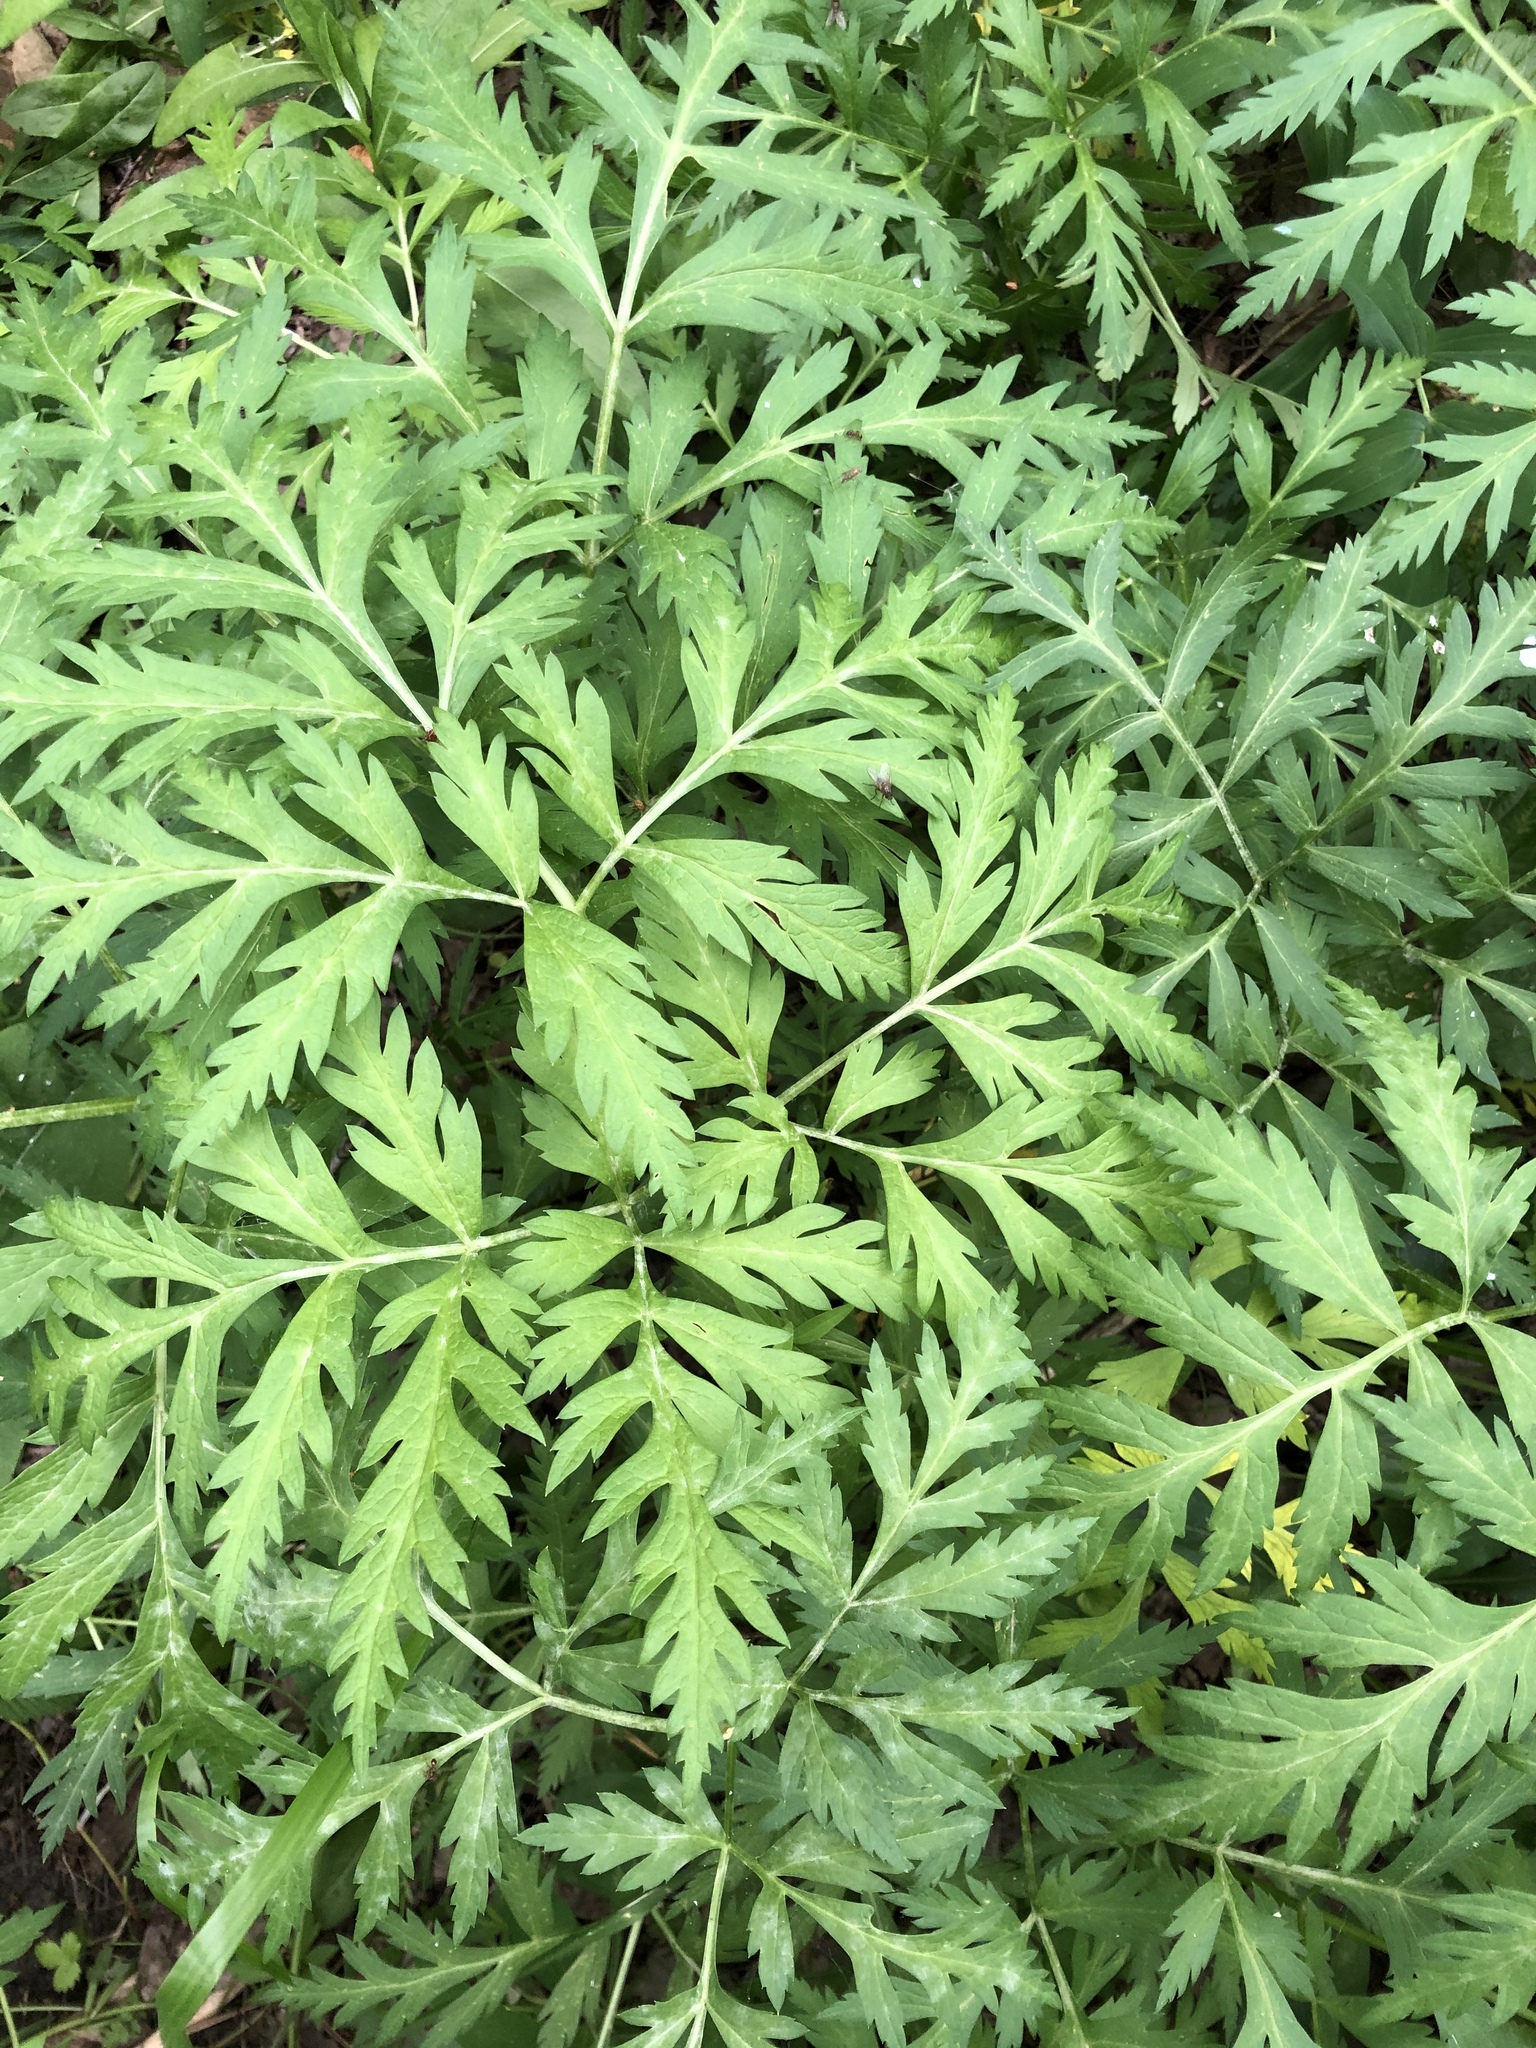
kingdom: Plantae
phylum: Tracheophyta
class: Magnoliopsida
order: Apiales
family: Apiaceae
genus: Pleurospermum
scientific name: Pleurospermum uralense
